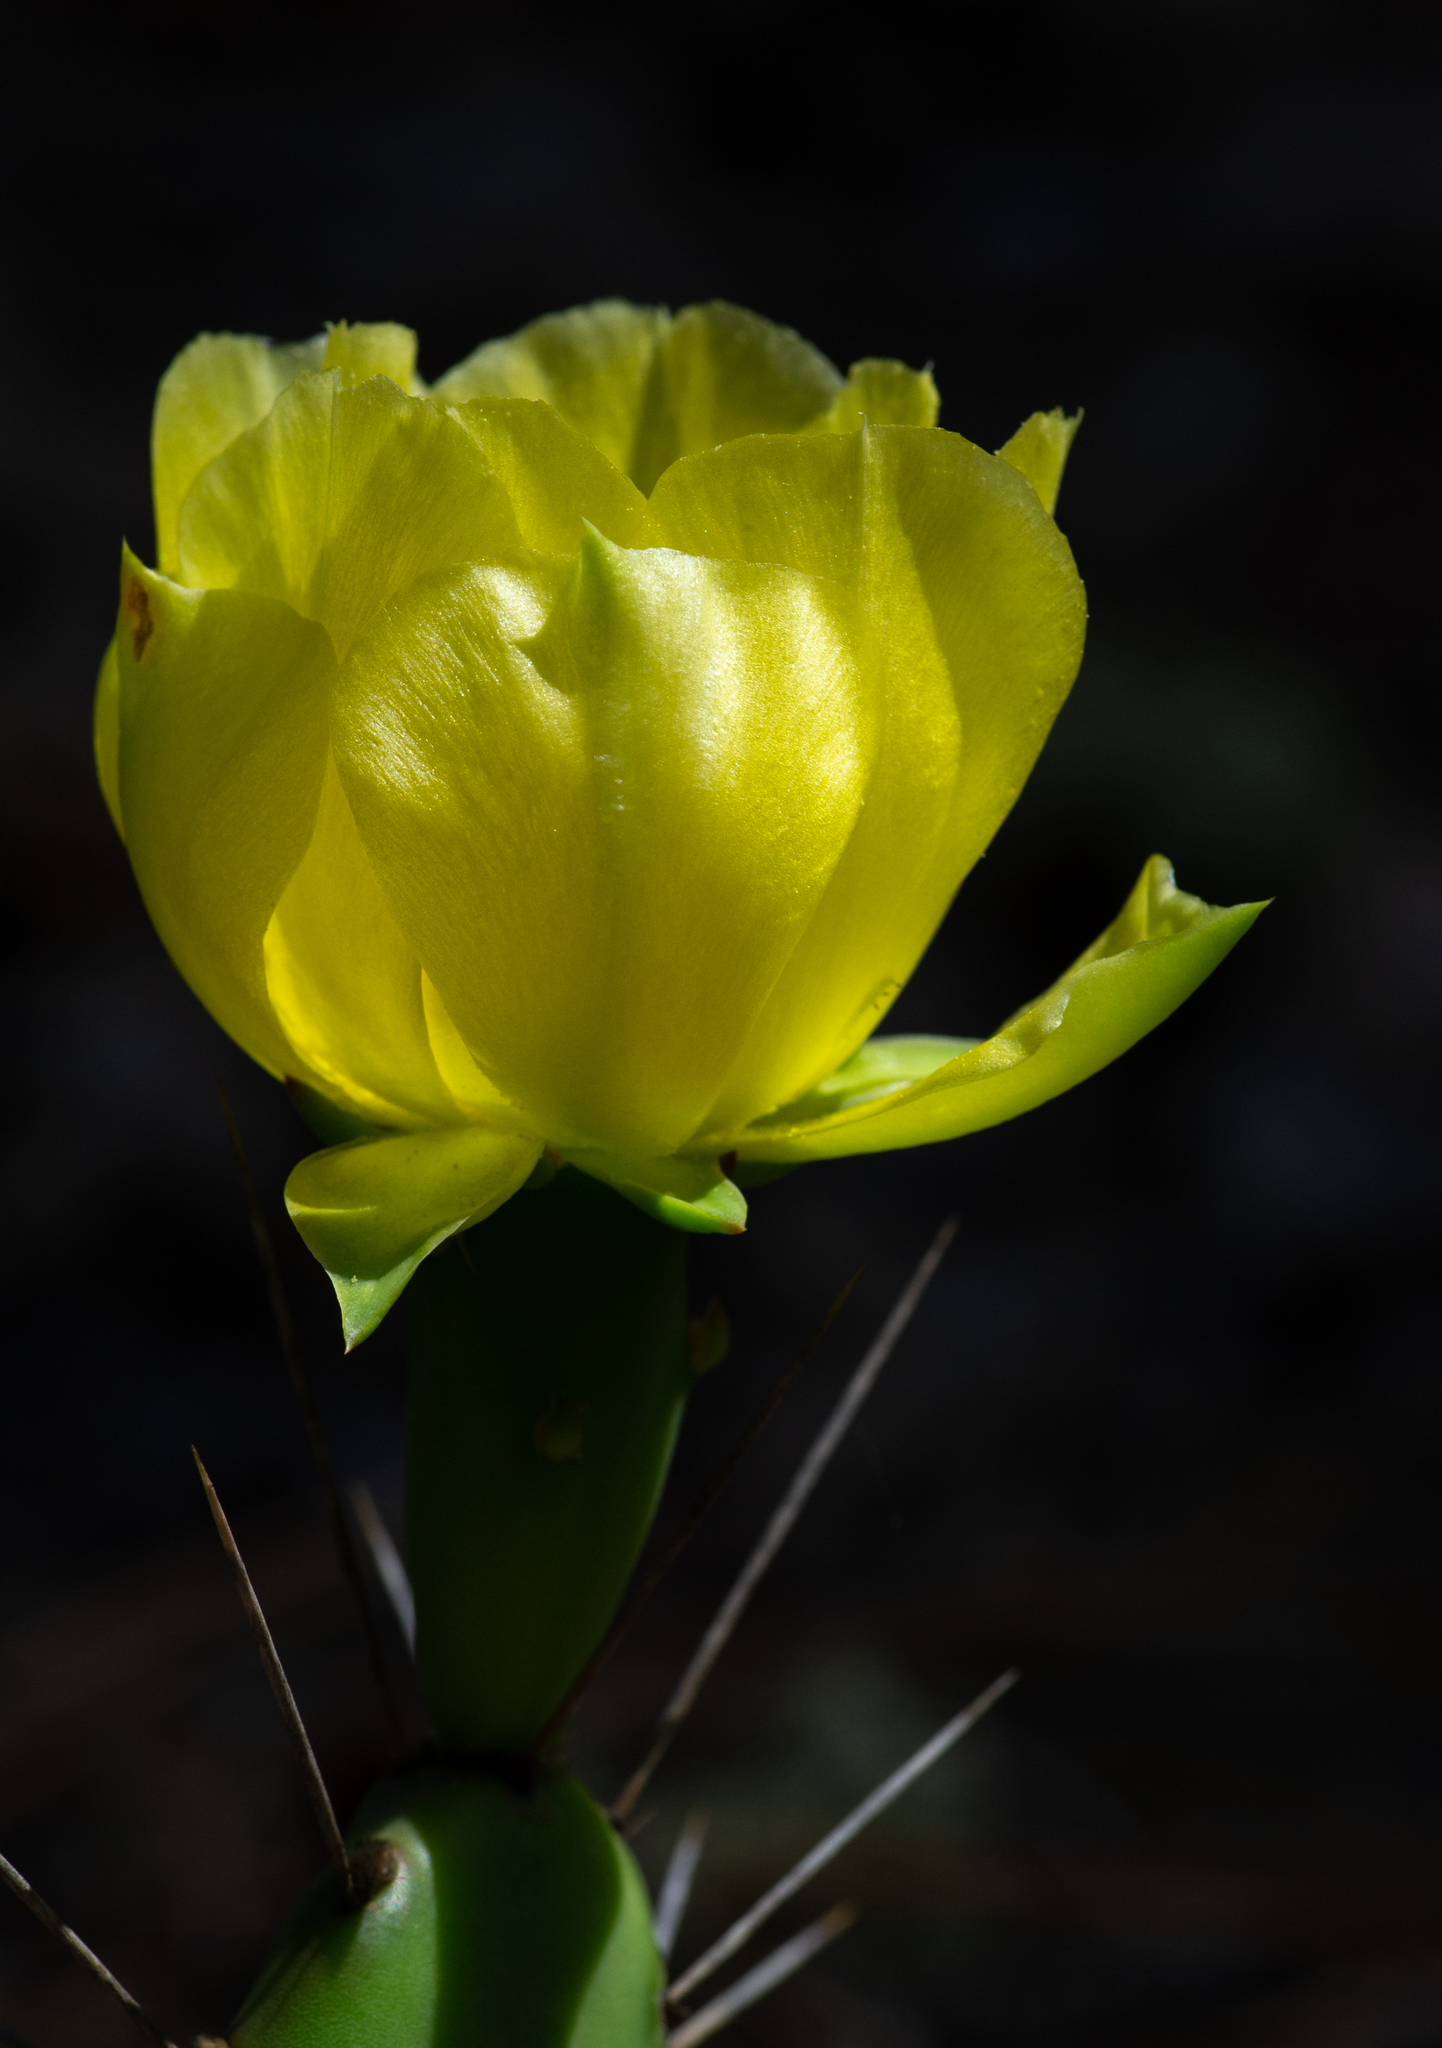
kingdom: Plantae
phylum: Tracheophyta
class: Magnoliopsida
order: Caryophyllales
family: Cactaceae
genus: Opuntia
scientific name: Opuntia mesacantha
